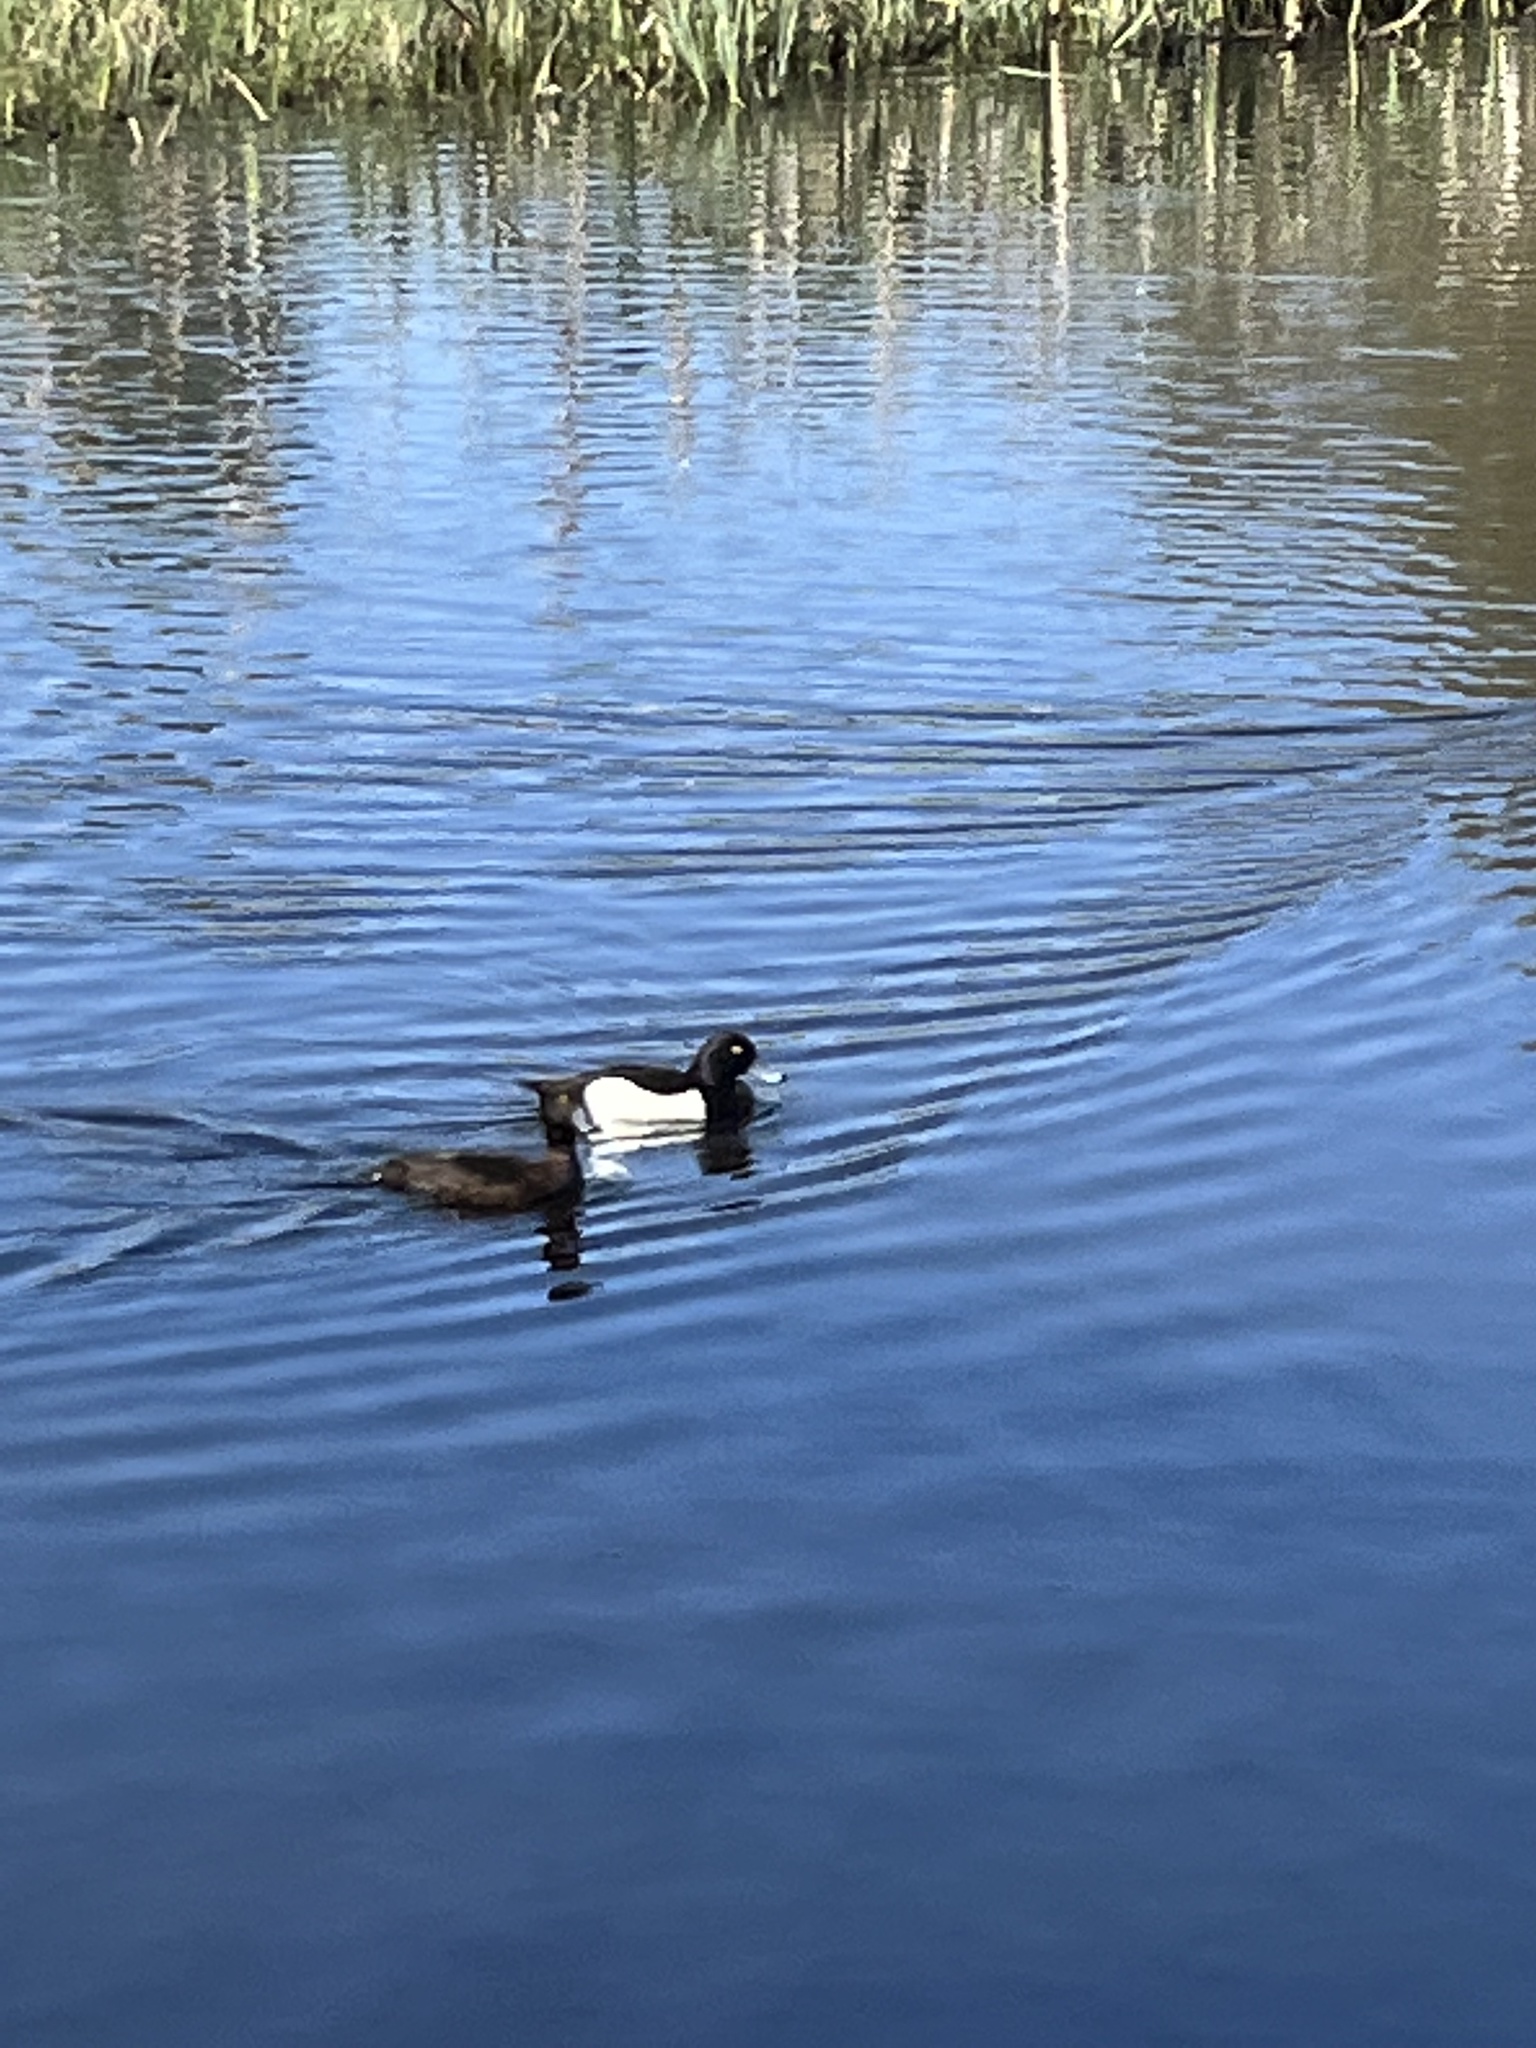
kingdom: Animalia
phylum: Chordata
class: Aves
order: Anseriformes
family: Anatidae
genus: Aythya
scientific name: Aythya fuligula
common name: Tufted duck
